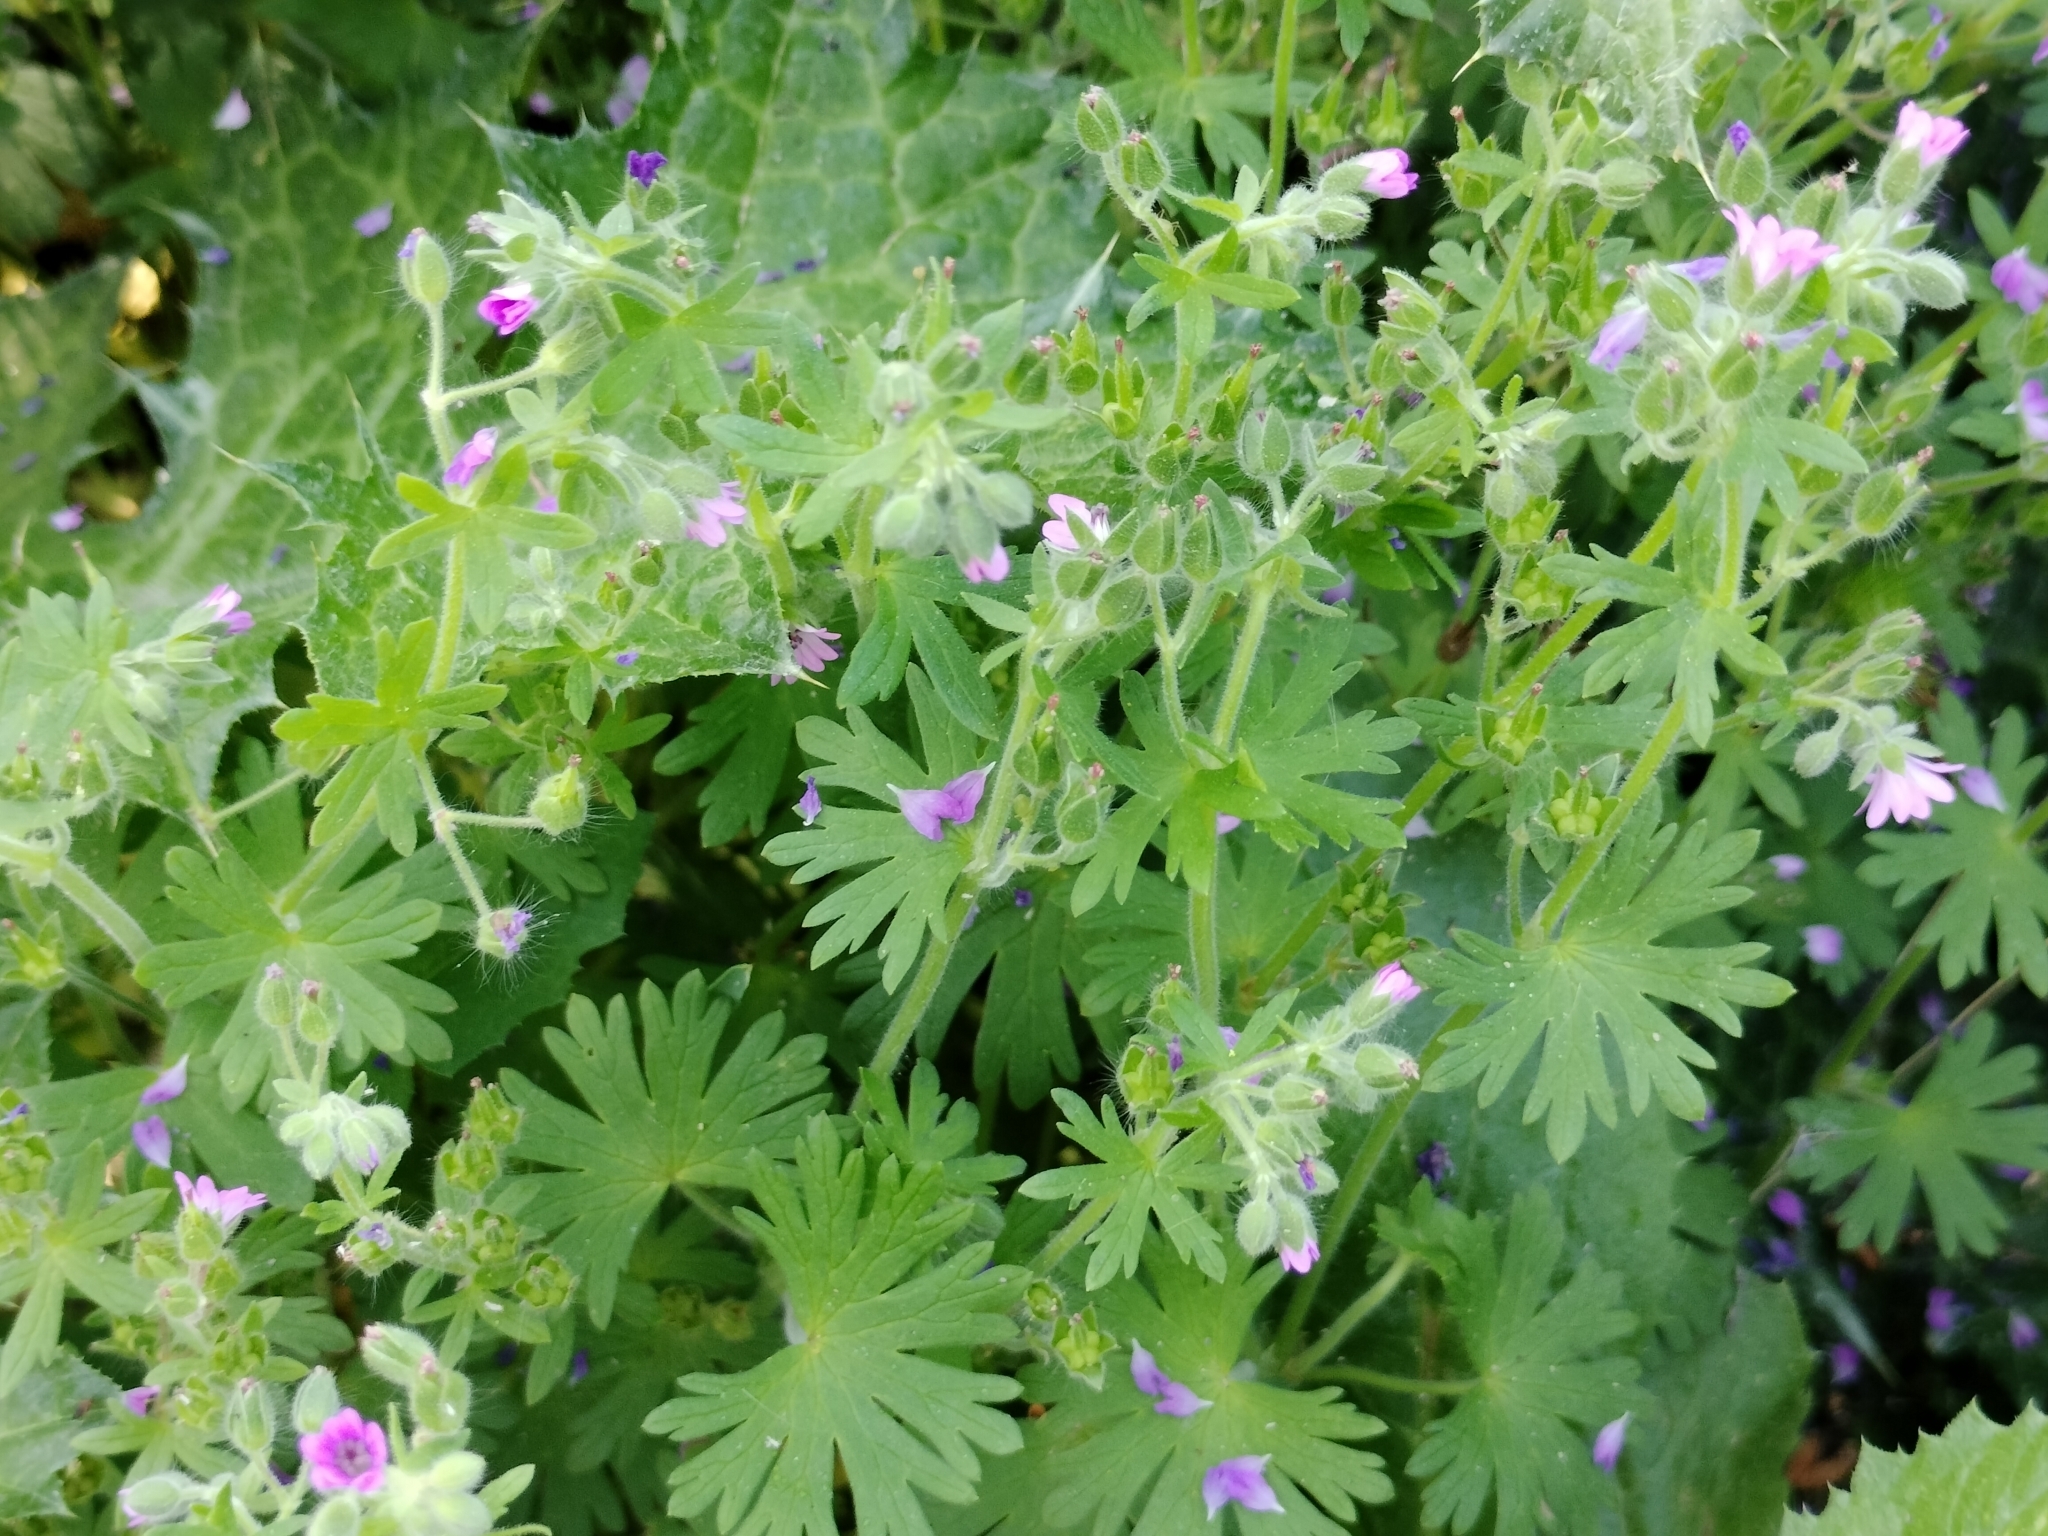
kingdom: Plantae
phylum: Tracheophyta
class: Magnoliopsida
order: Geraniales
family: Geraniaceae
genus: Geranium
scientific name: Geranium molle
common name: Dove's-foot crane's-bill
